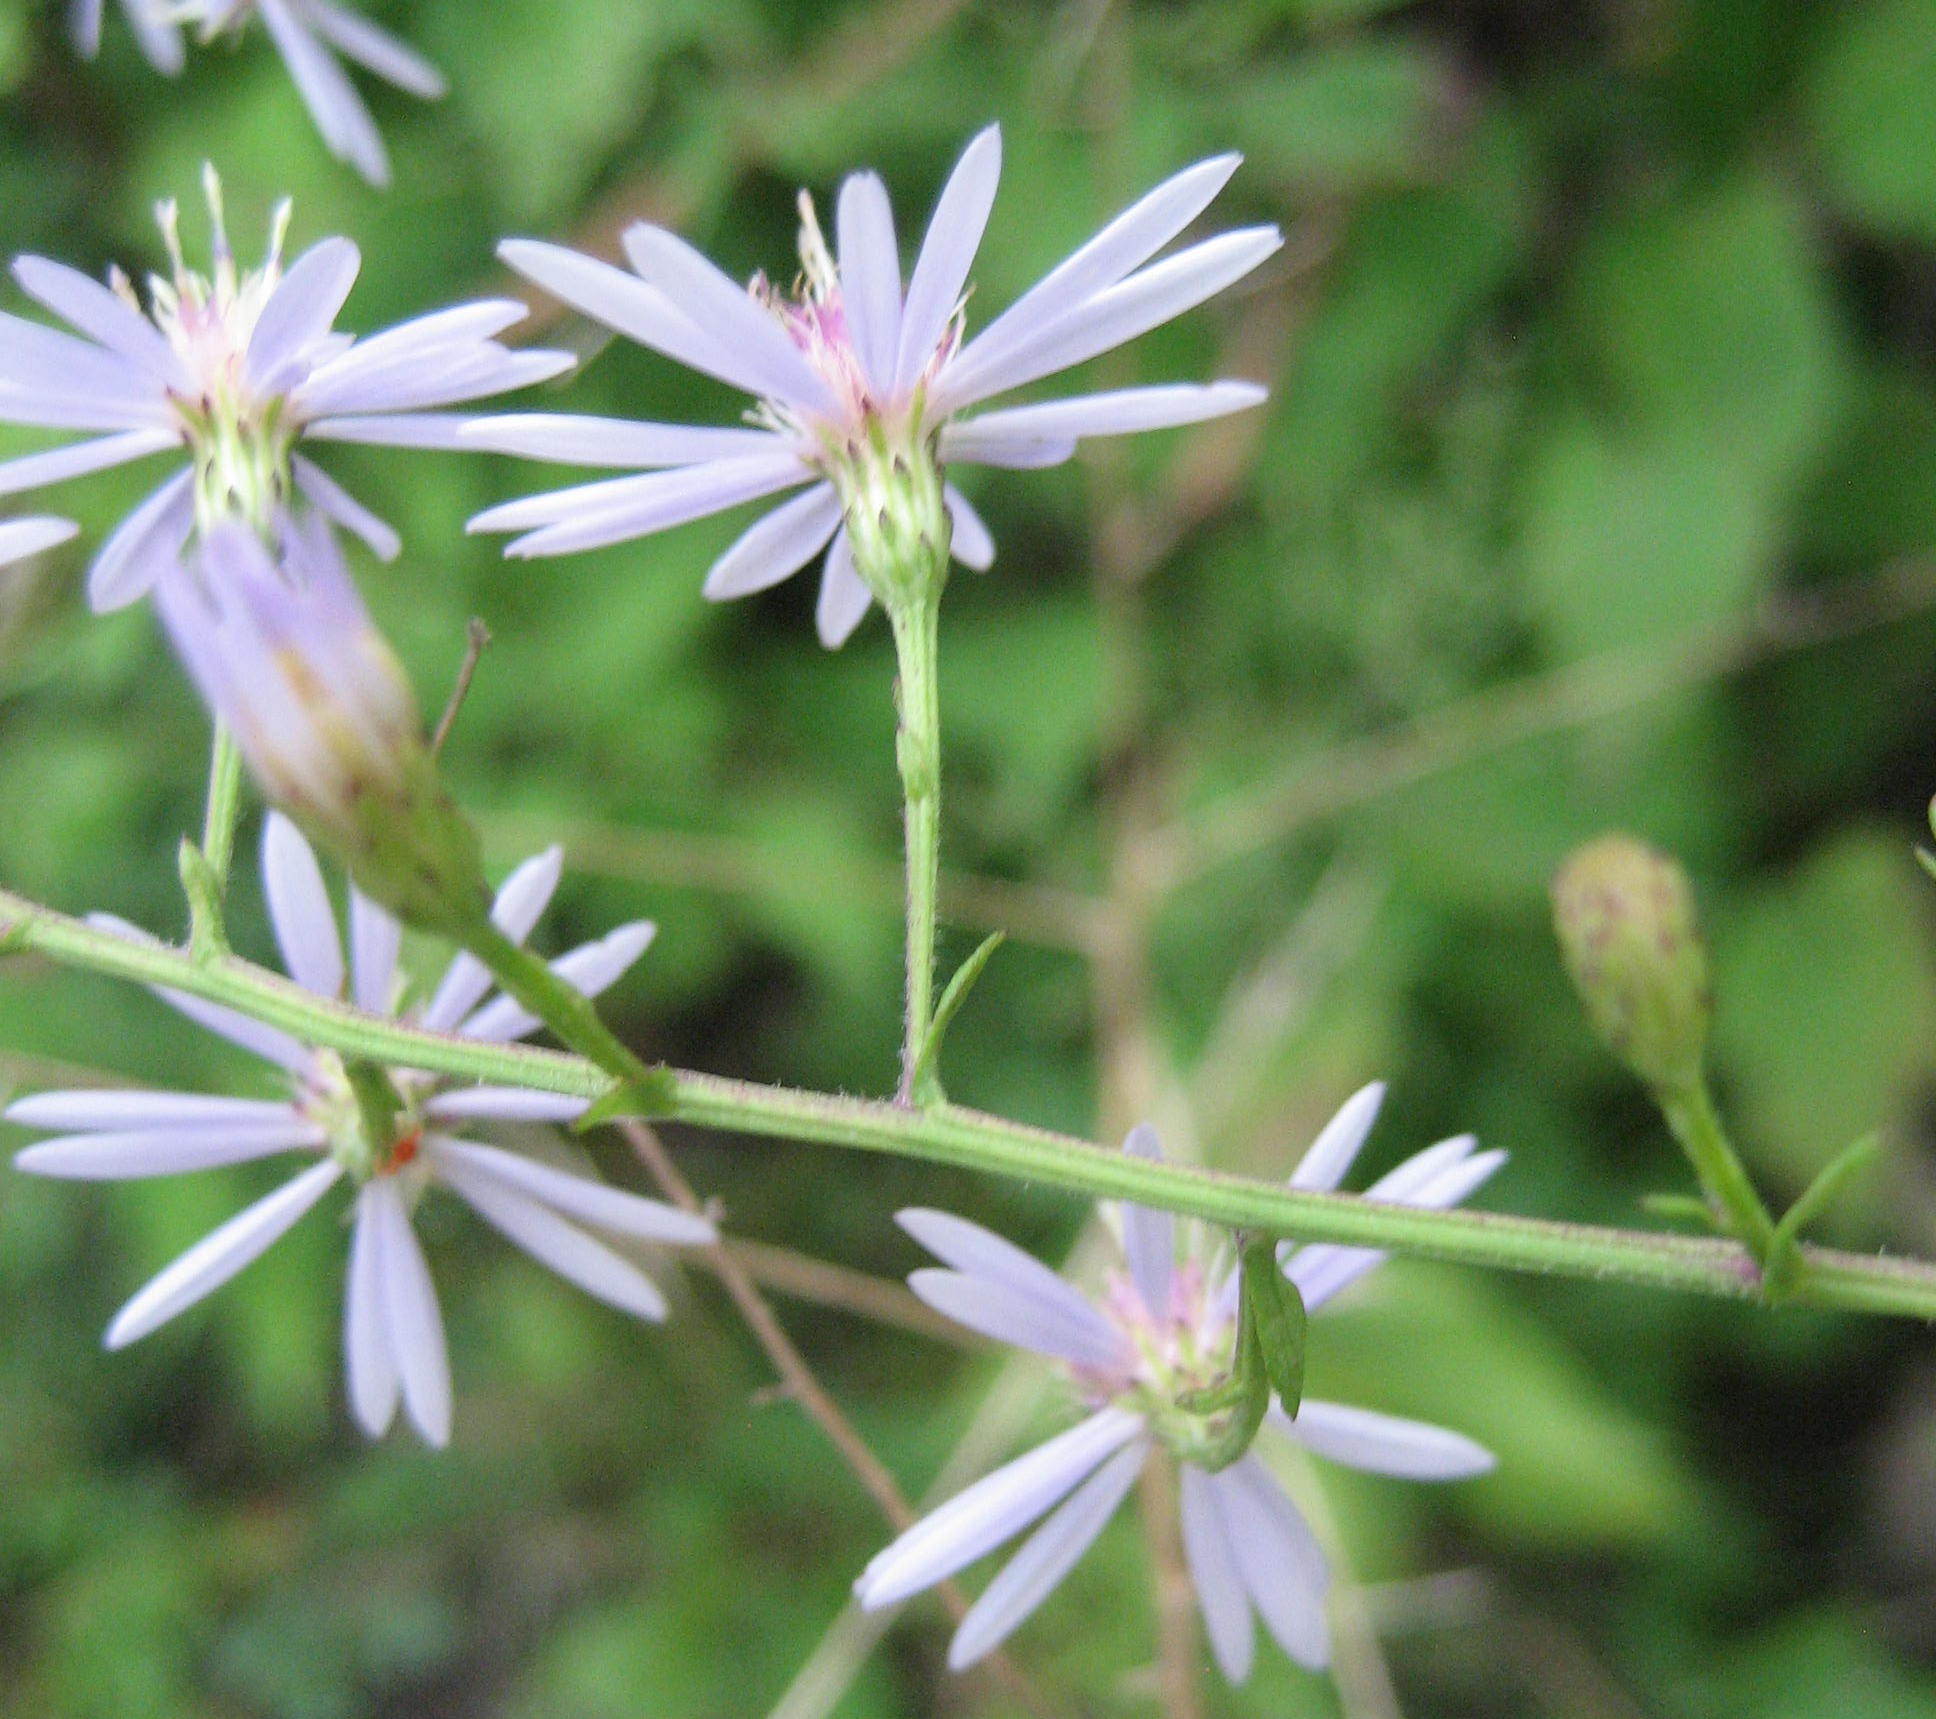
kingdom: Plantae
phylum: Tracheophyta
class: Magnoliopsida
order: Asterales
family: Asteraceae
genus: Symphyotrichum
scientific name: Symphyotrichum cordifolium
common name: Beeweed
